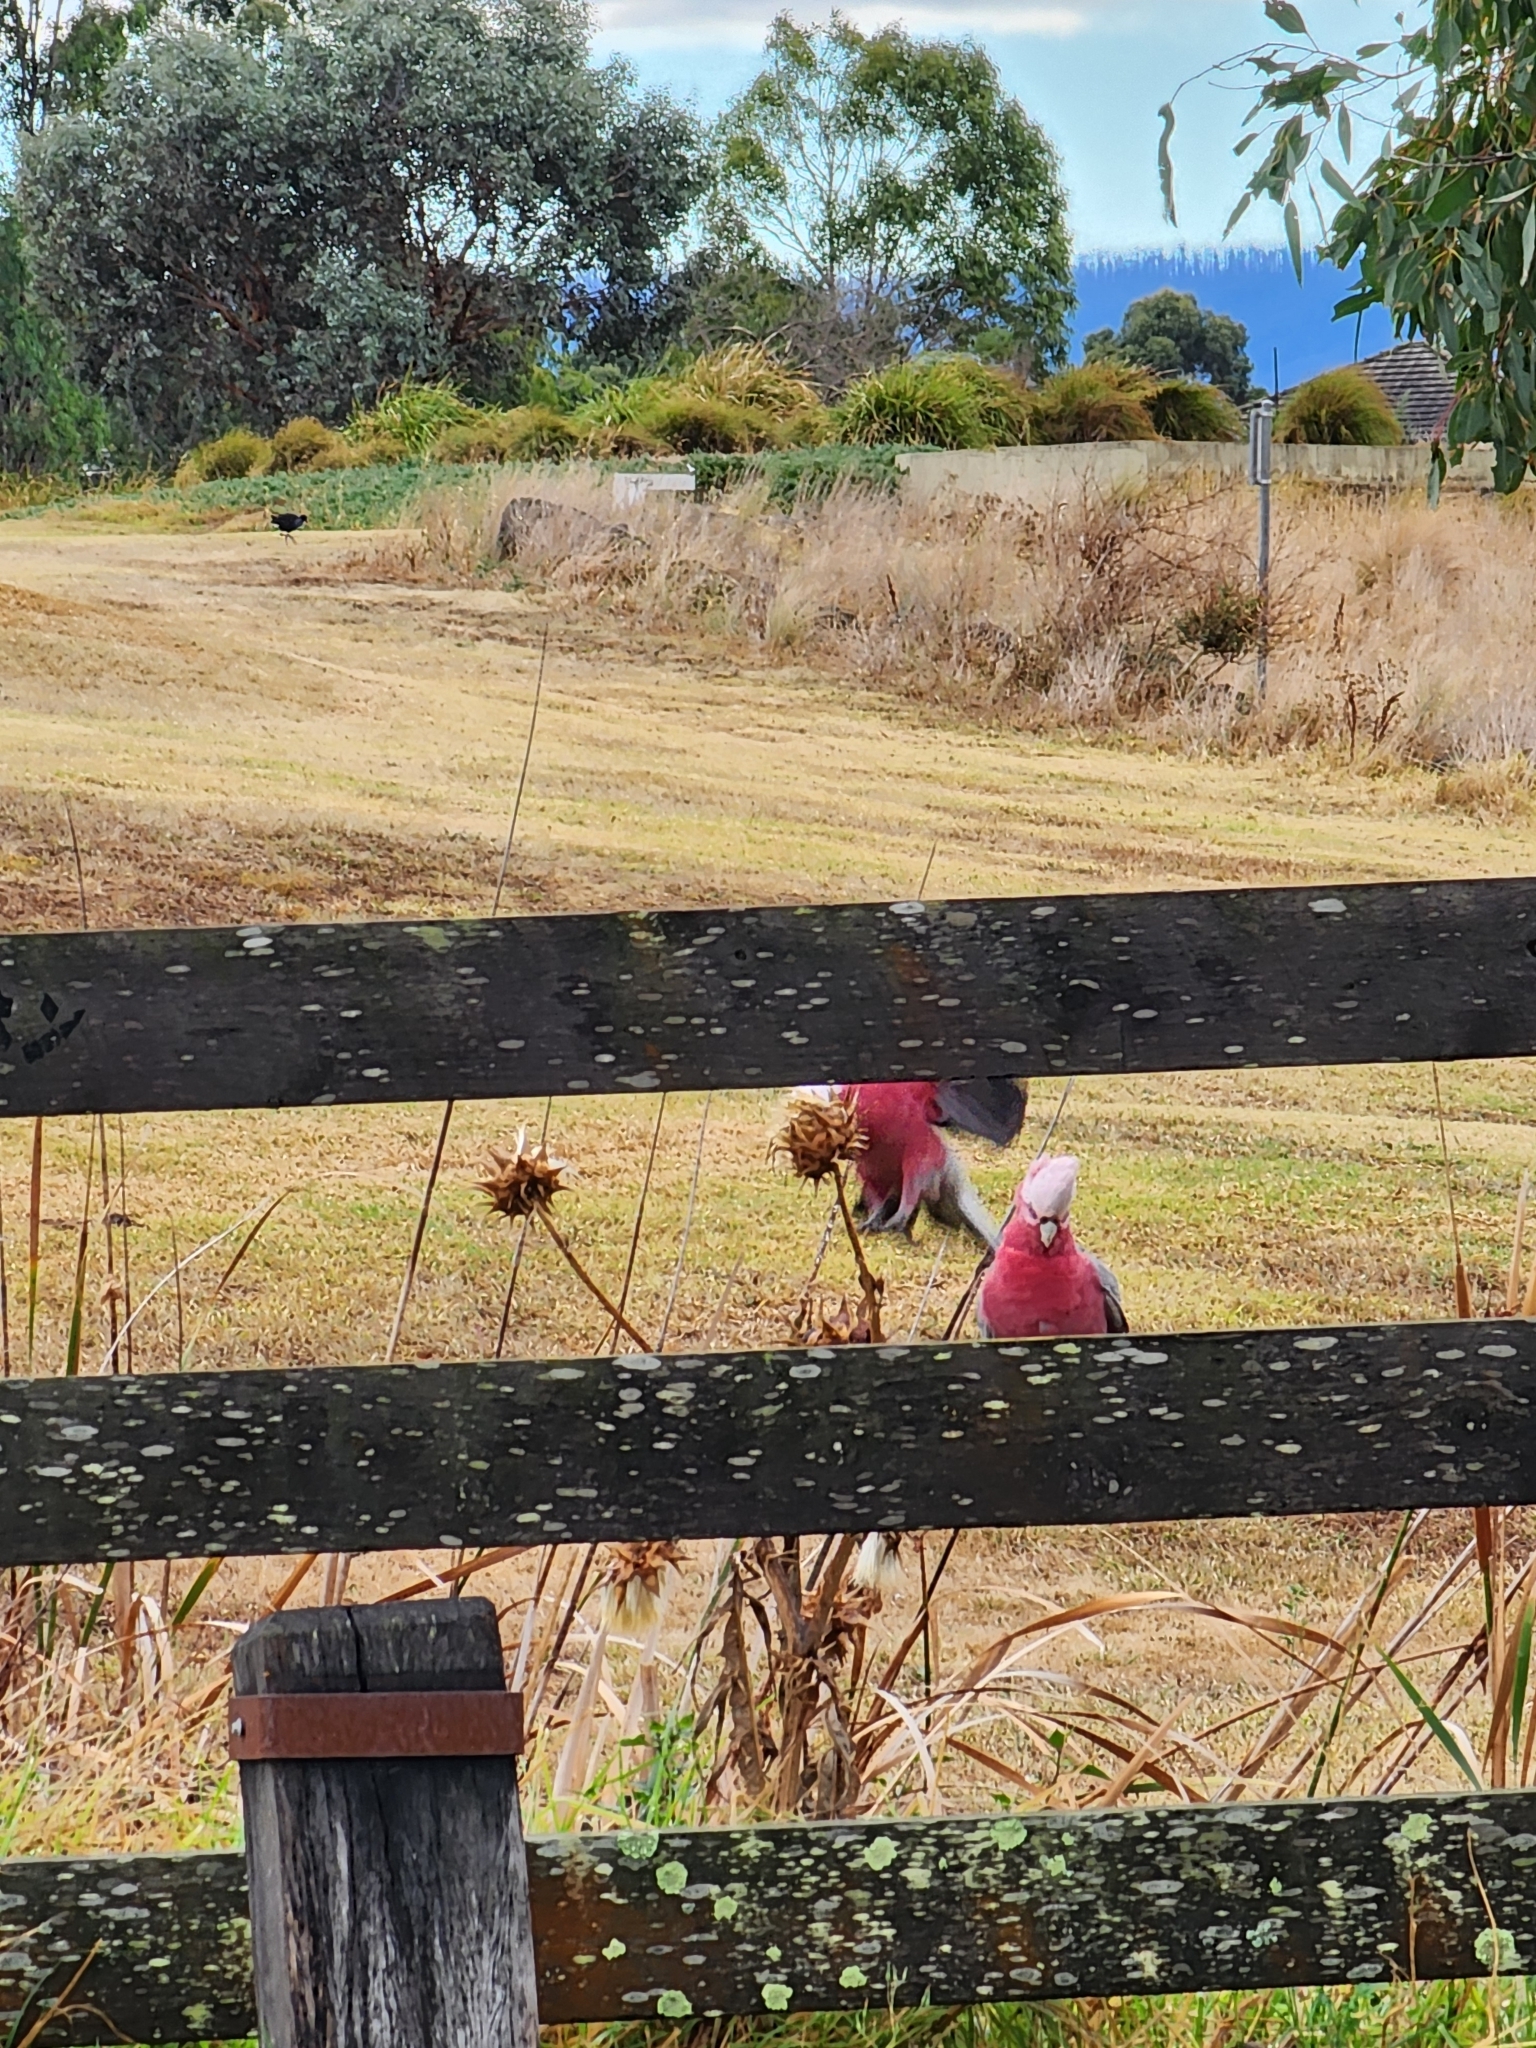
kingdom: Animalia
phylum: Chordata
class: Aves
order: Psittaciformes
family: Psittacidae
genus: Eolophus
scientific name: Eolophus roseicapilla
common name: Galah
